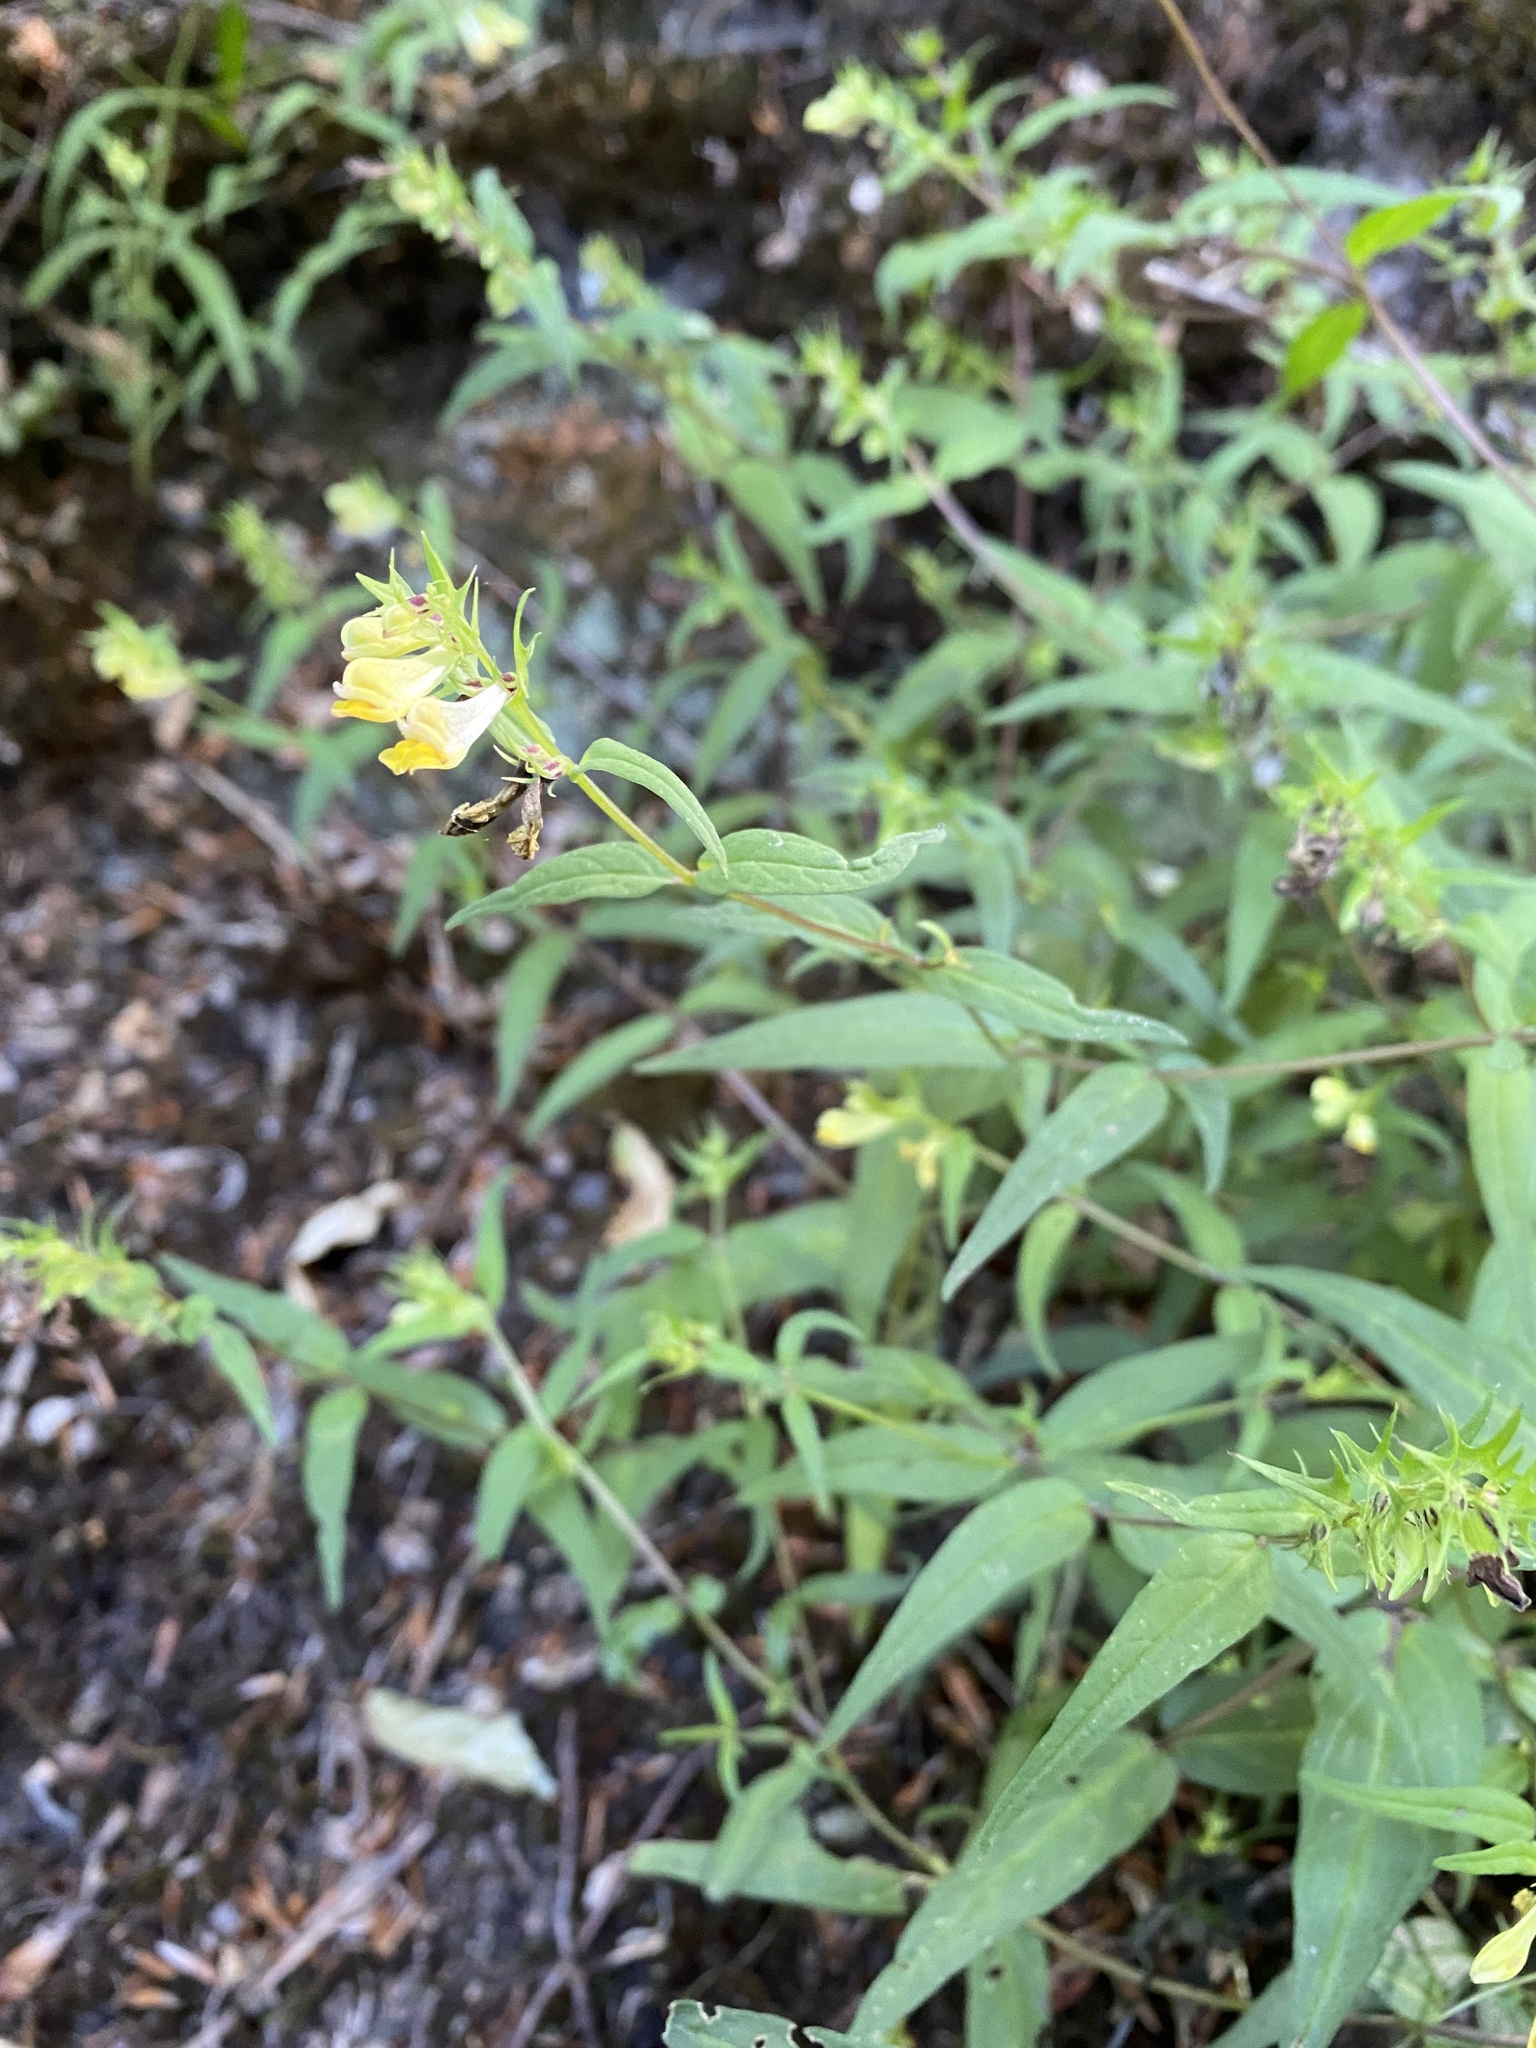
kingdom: Plantae
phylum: Tracheophyta
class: Magnoliopsida
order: Lamiales
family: Orobanchaceae
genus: Melampyrum
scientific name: Melampyrum pratense
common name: Common cow-wheat
